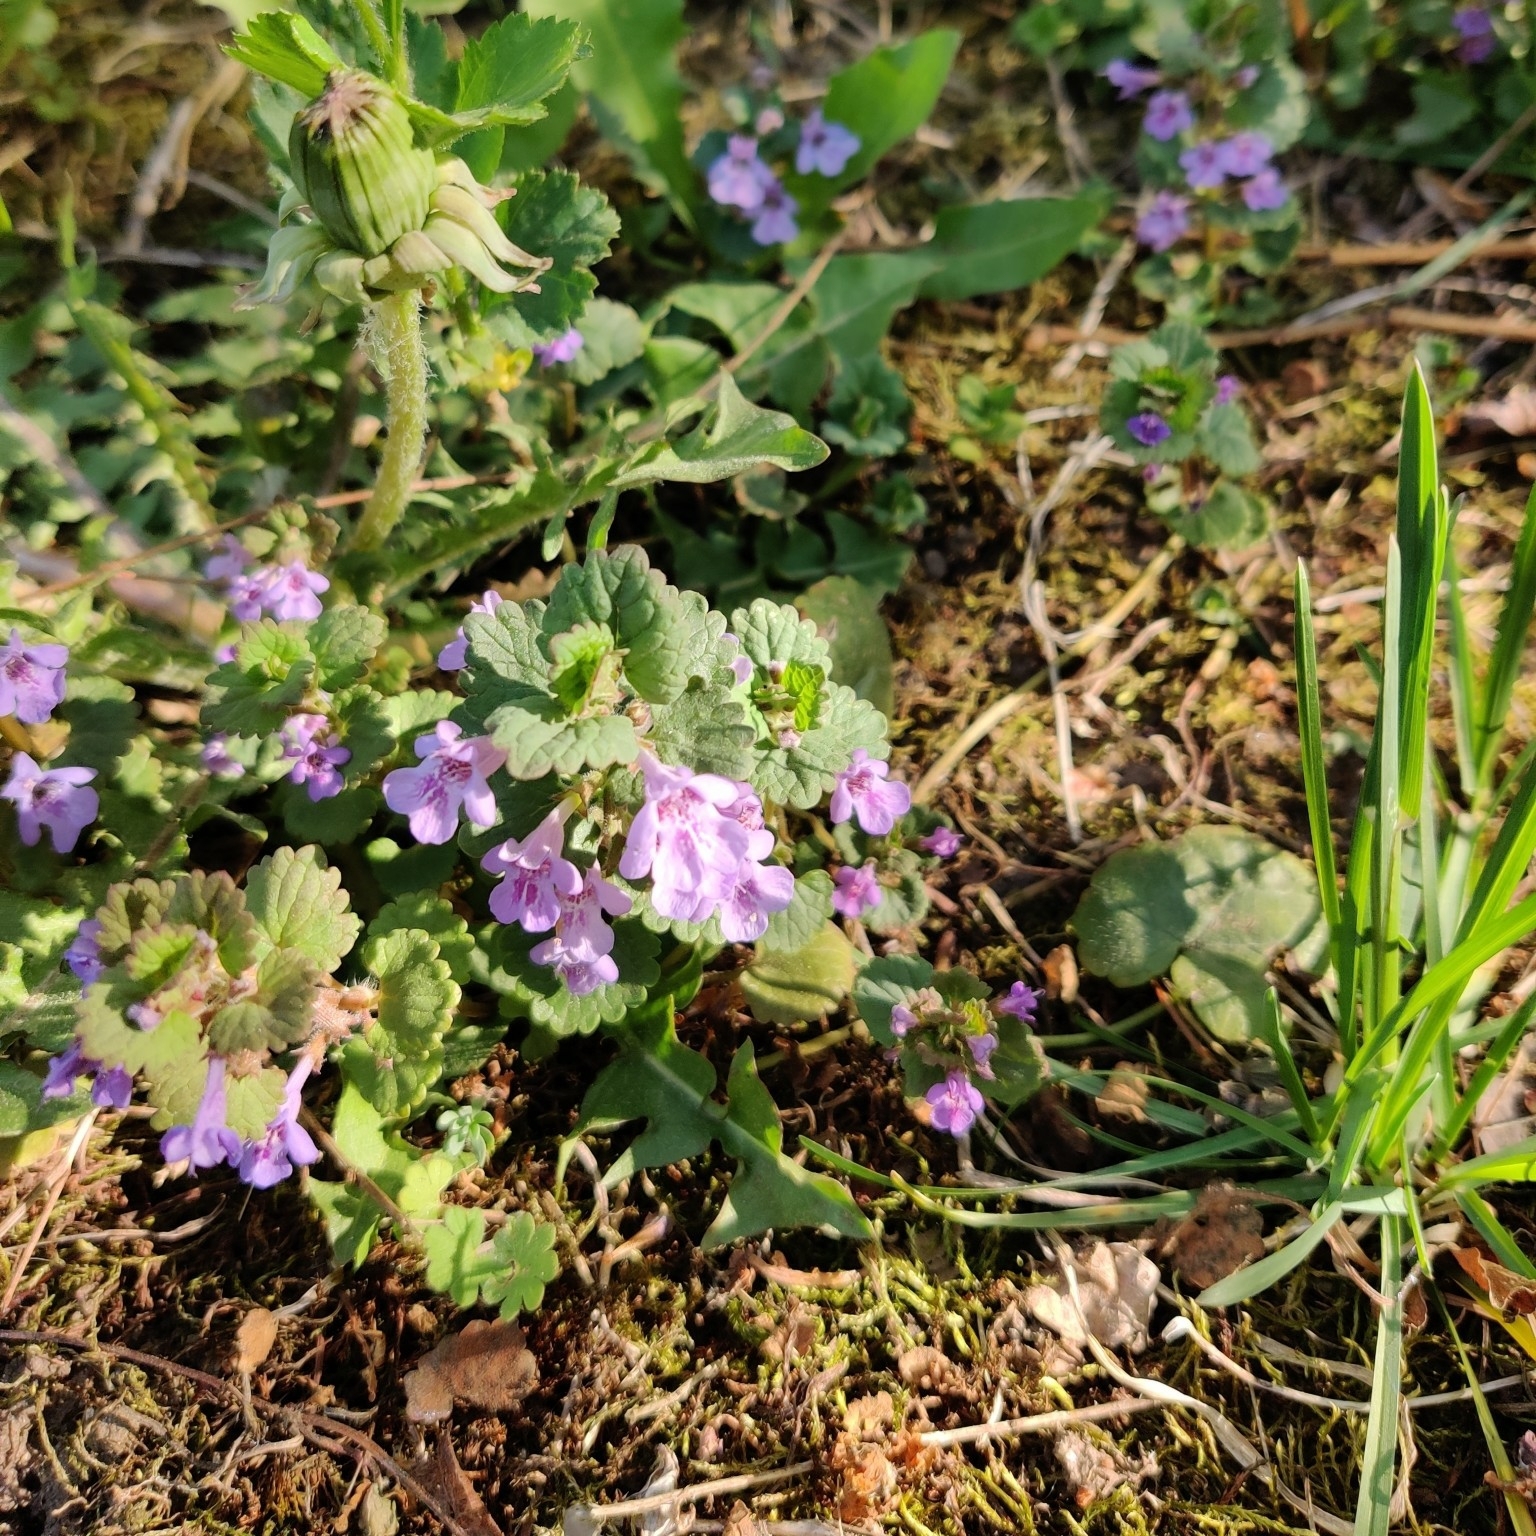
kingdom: Plantae
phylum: Tracheophyta
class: Magnoliopsida
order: Lamiales
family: Lamiaceae
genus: Glechoma
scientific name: Glechoma hederacea
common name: Ground ivy
